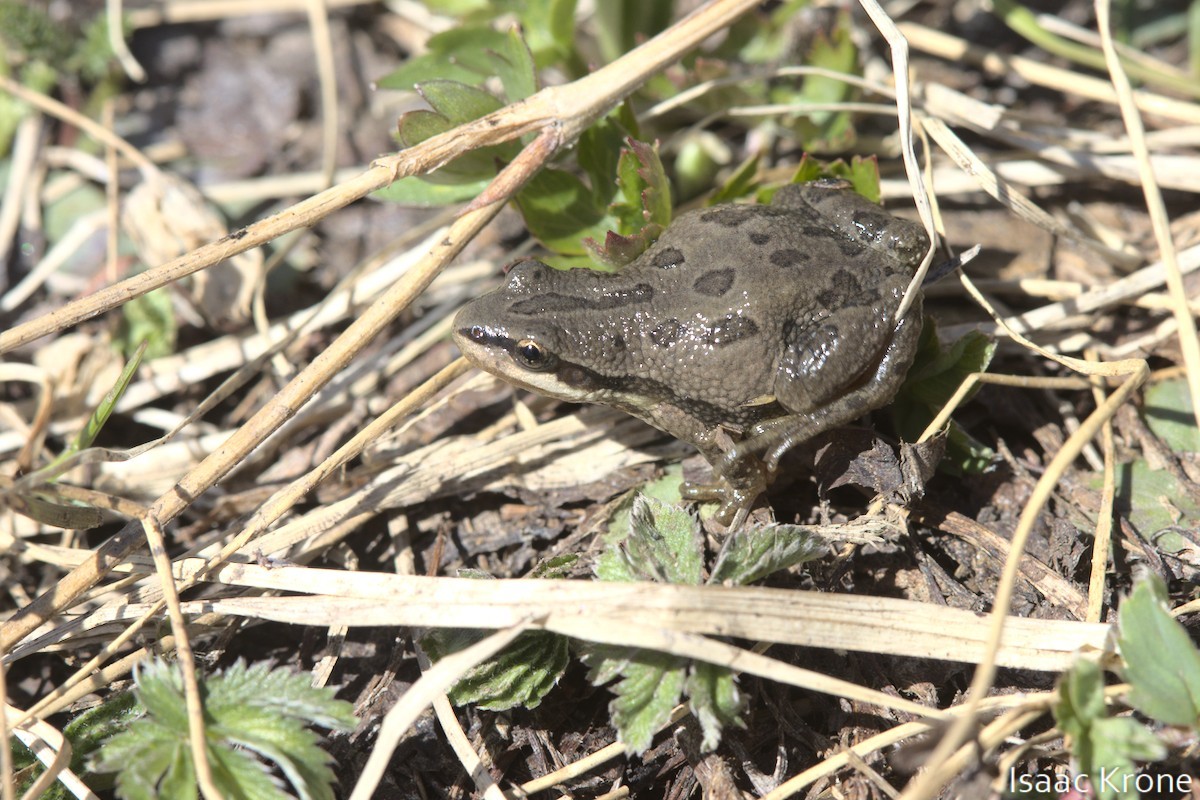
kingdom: Animalia
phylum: Chordata
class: Amphibia
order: Anura
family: Hylidae
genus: Pseudacris
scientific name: Pseudacris maculata
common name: Boreal chorus frog
